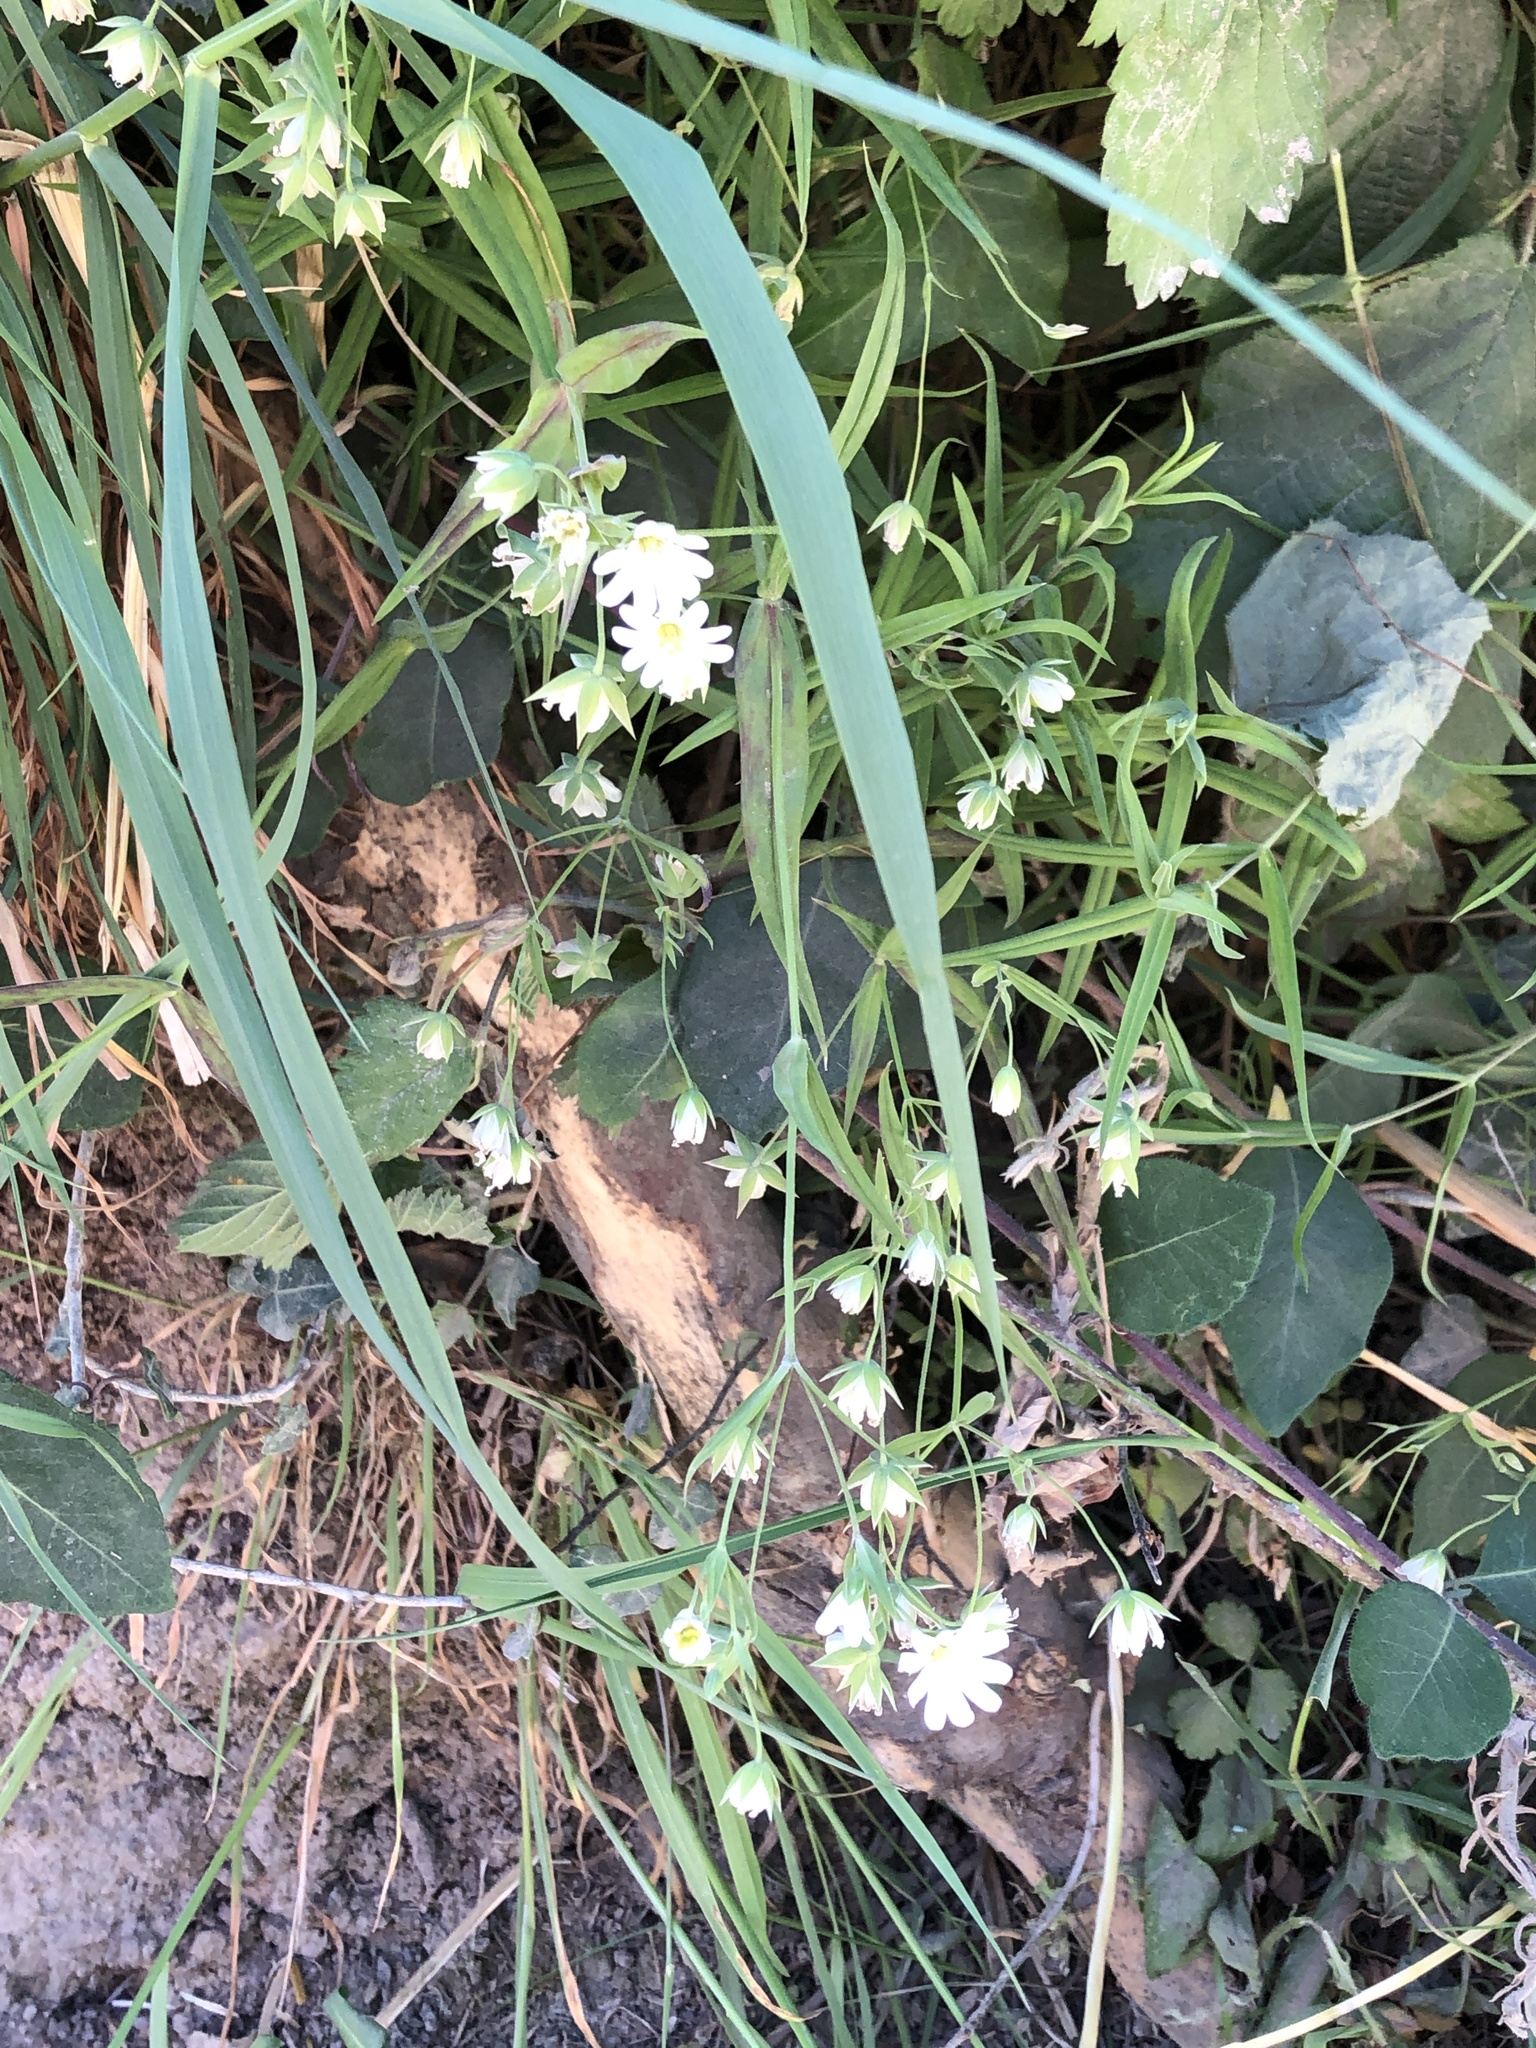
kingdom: Plantae
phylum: Tracheophyta
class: Magnoliopsida
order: Caryophyllales
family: Caryophyllaceae
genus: Rabelera
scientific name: Rabelera holostea
